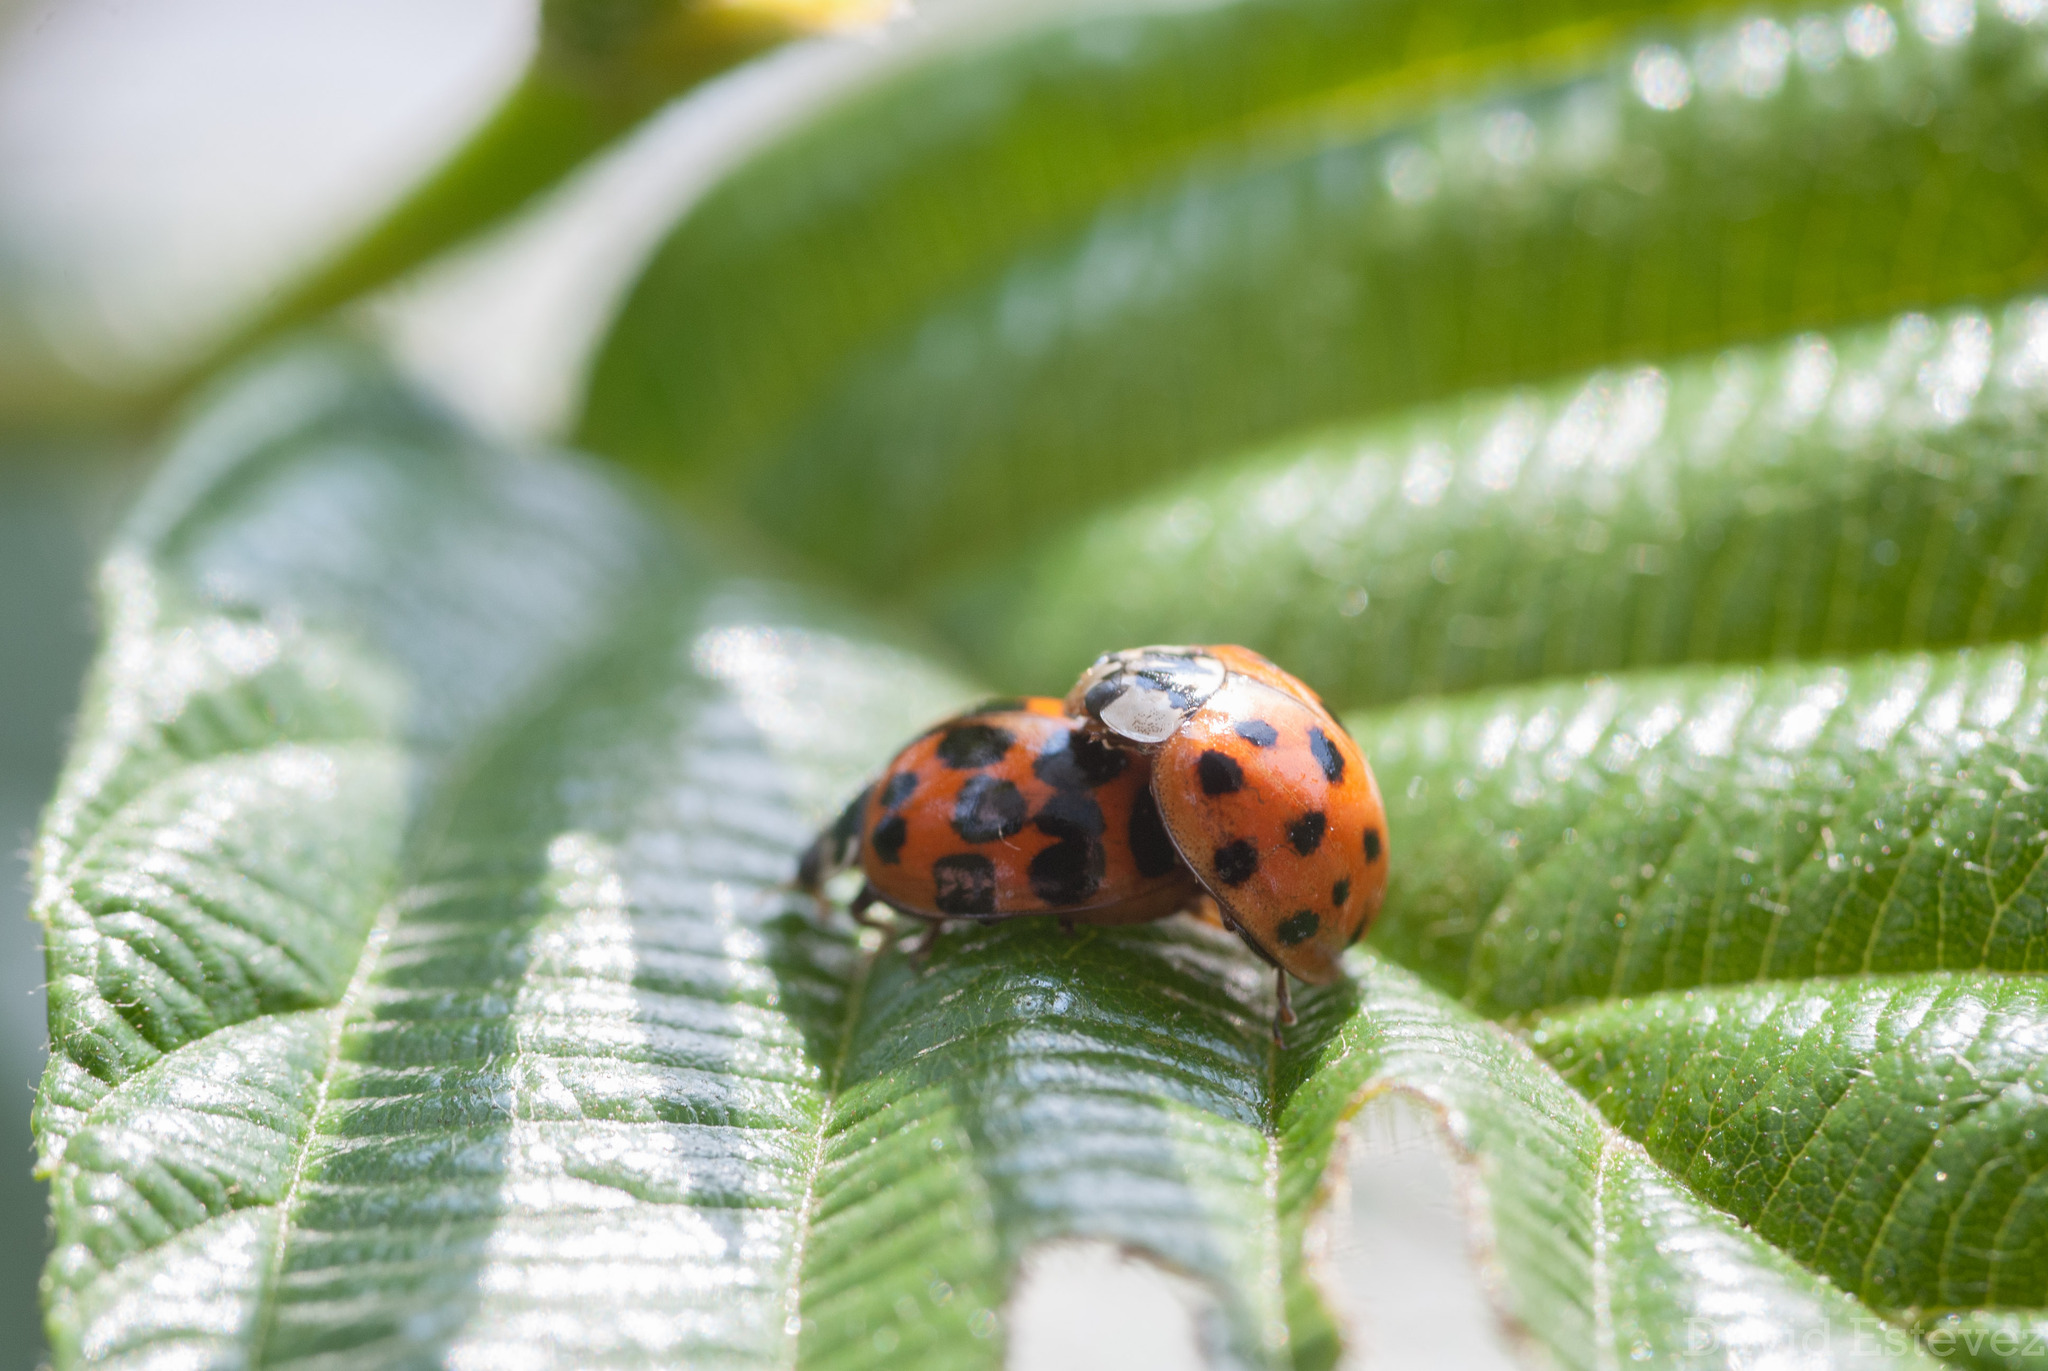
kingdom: Animalia
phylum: Arthropoda
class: Insecta
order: Coleoptera
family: Coccinellidae
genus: Harmonia
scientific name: Harmonia axyridis
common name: Harlequin ladybird
